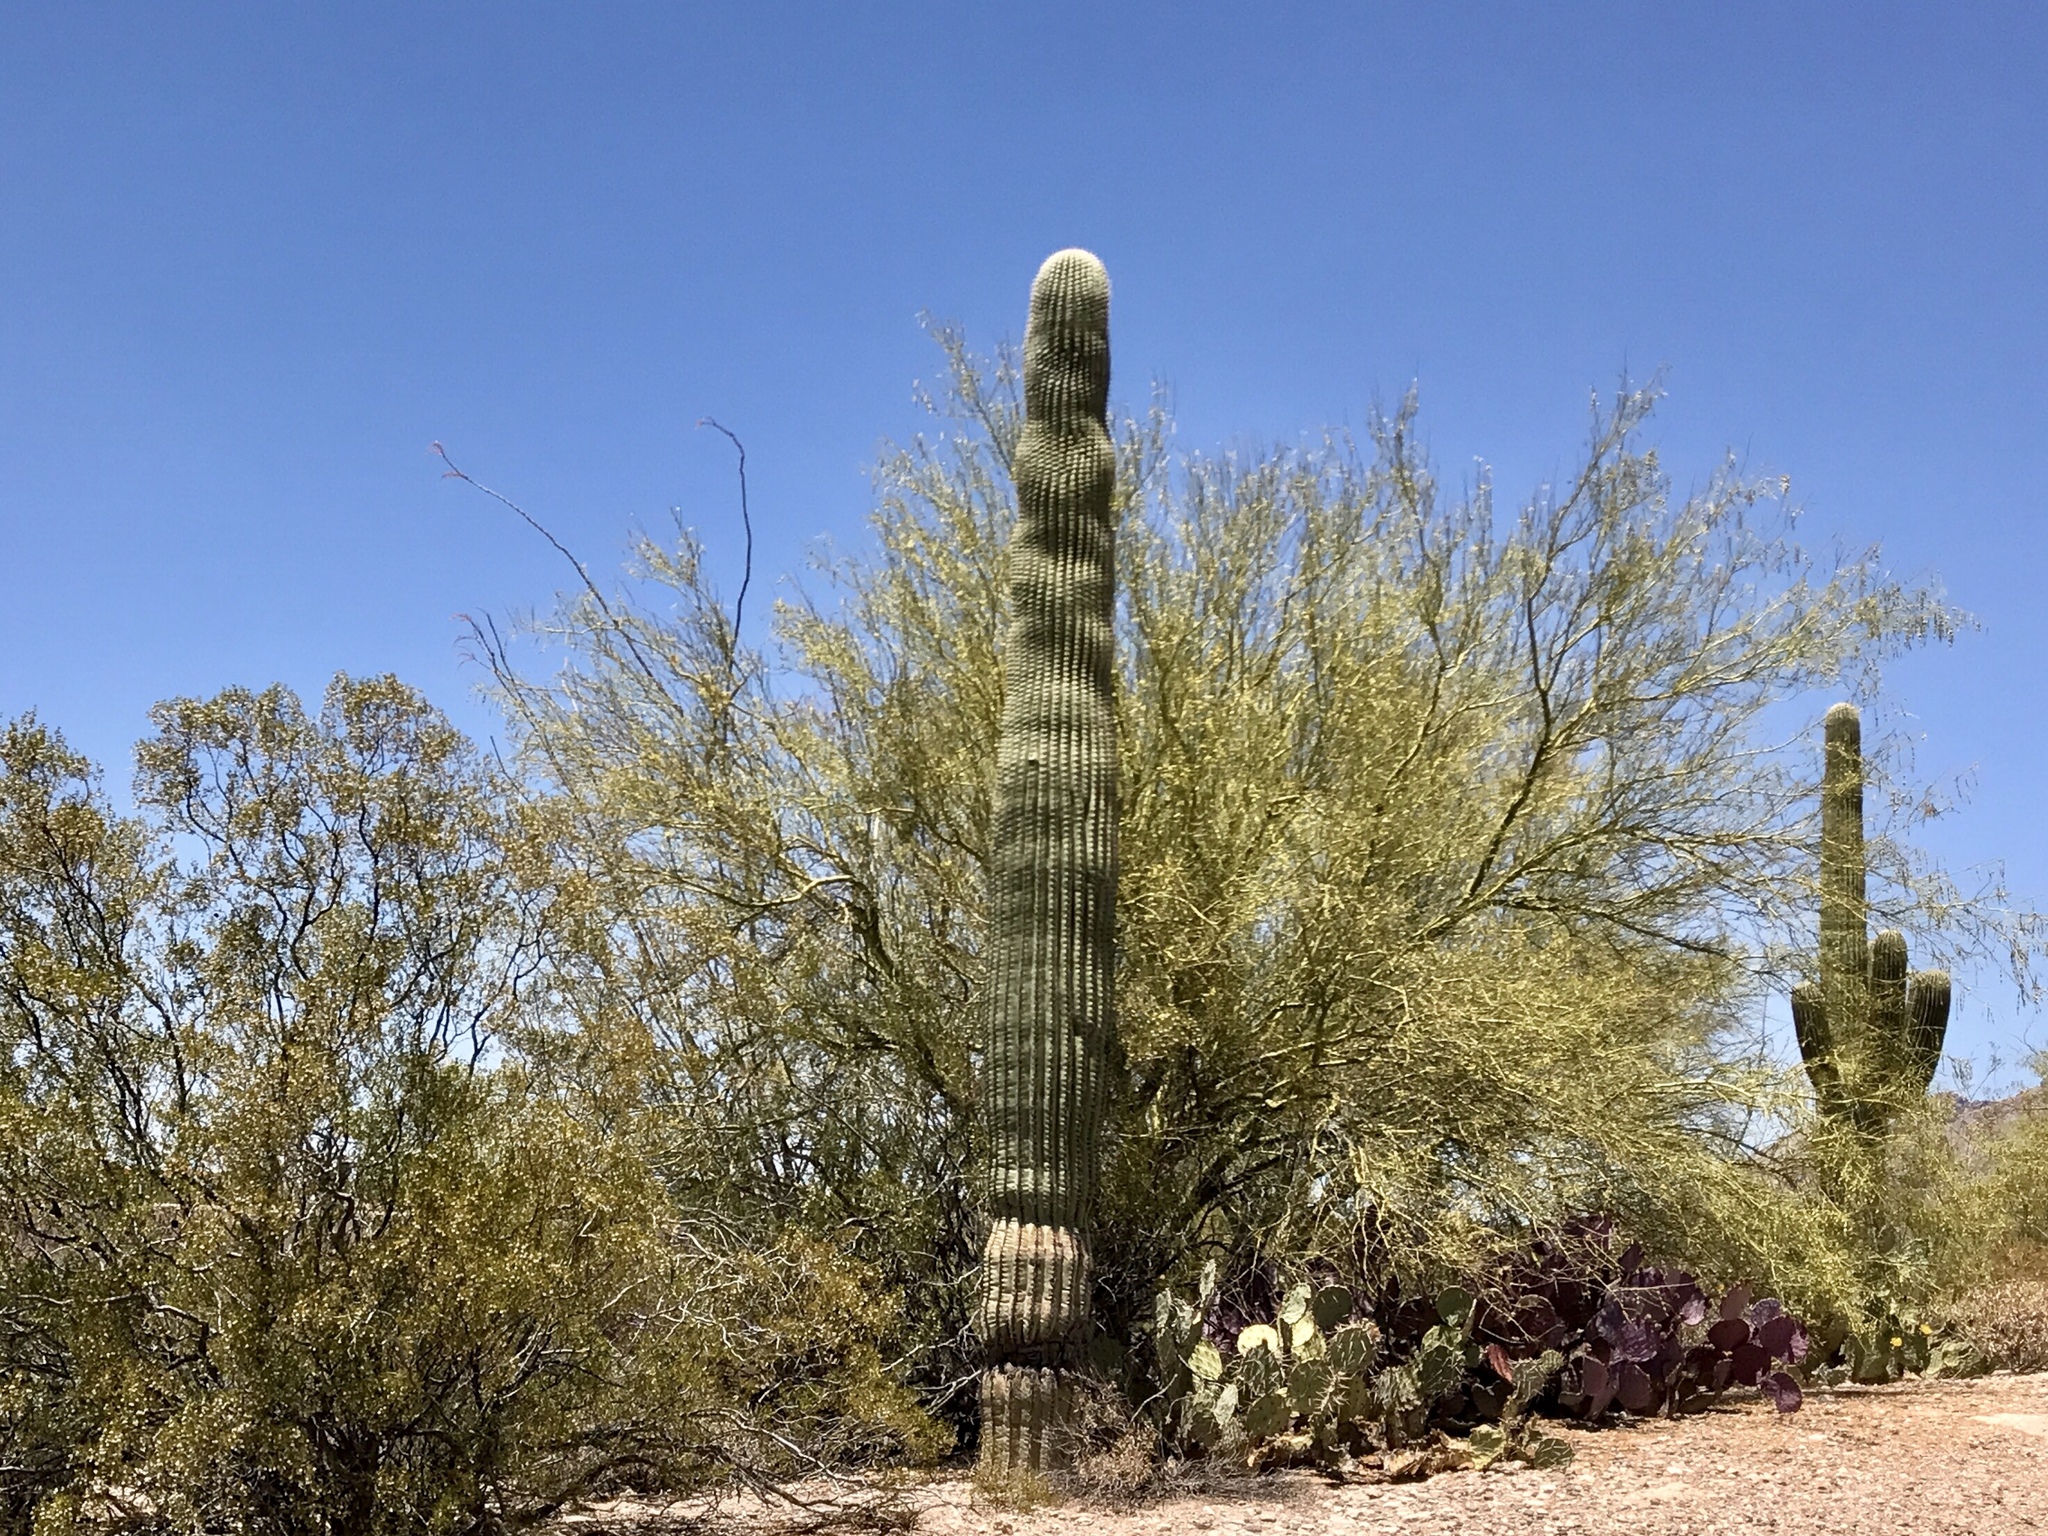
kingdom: Plantae
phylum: Tracheophyta
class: Magnoliopsida
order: Caryophyllales
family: Cactaceae
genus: Carnegiea
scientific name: Carnegiea gigantea
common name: Saguaro
